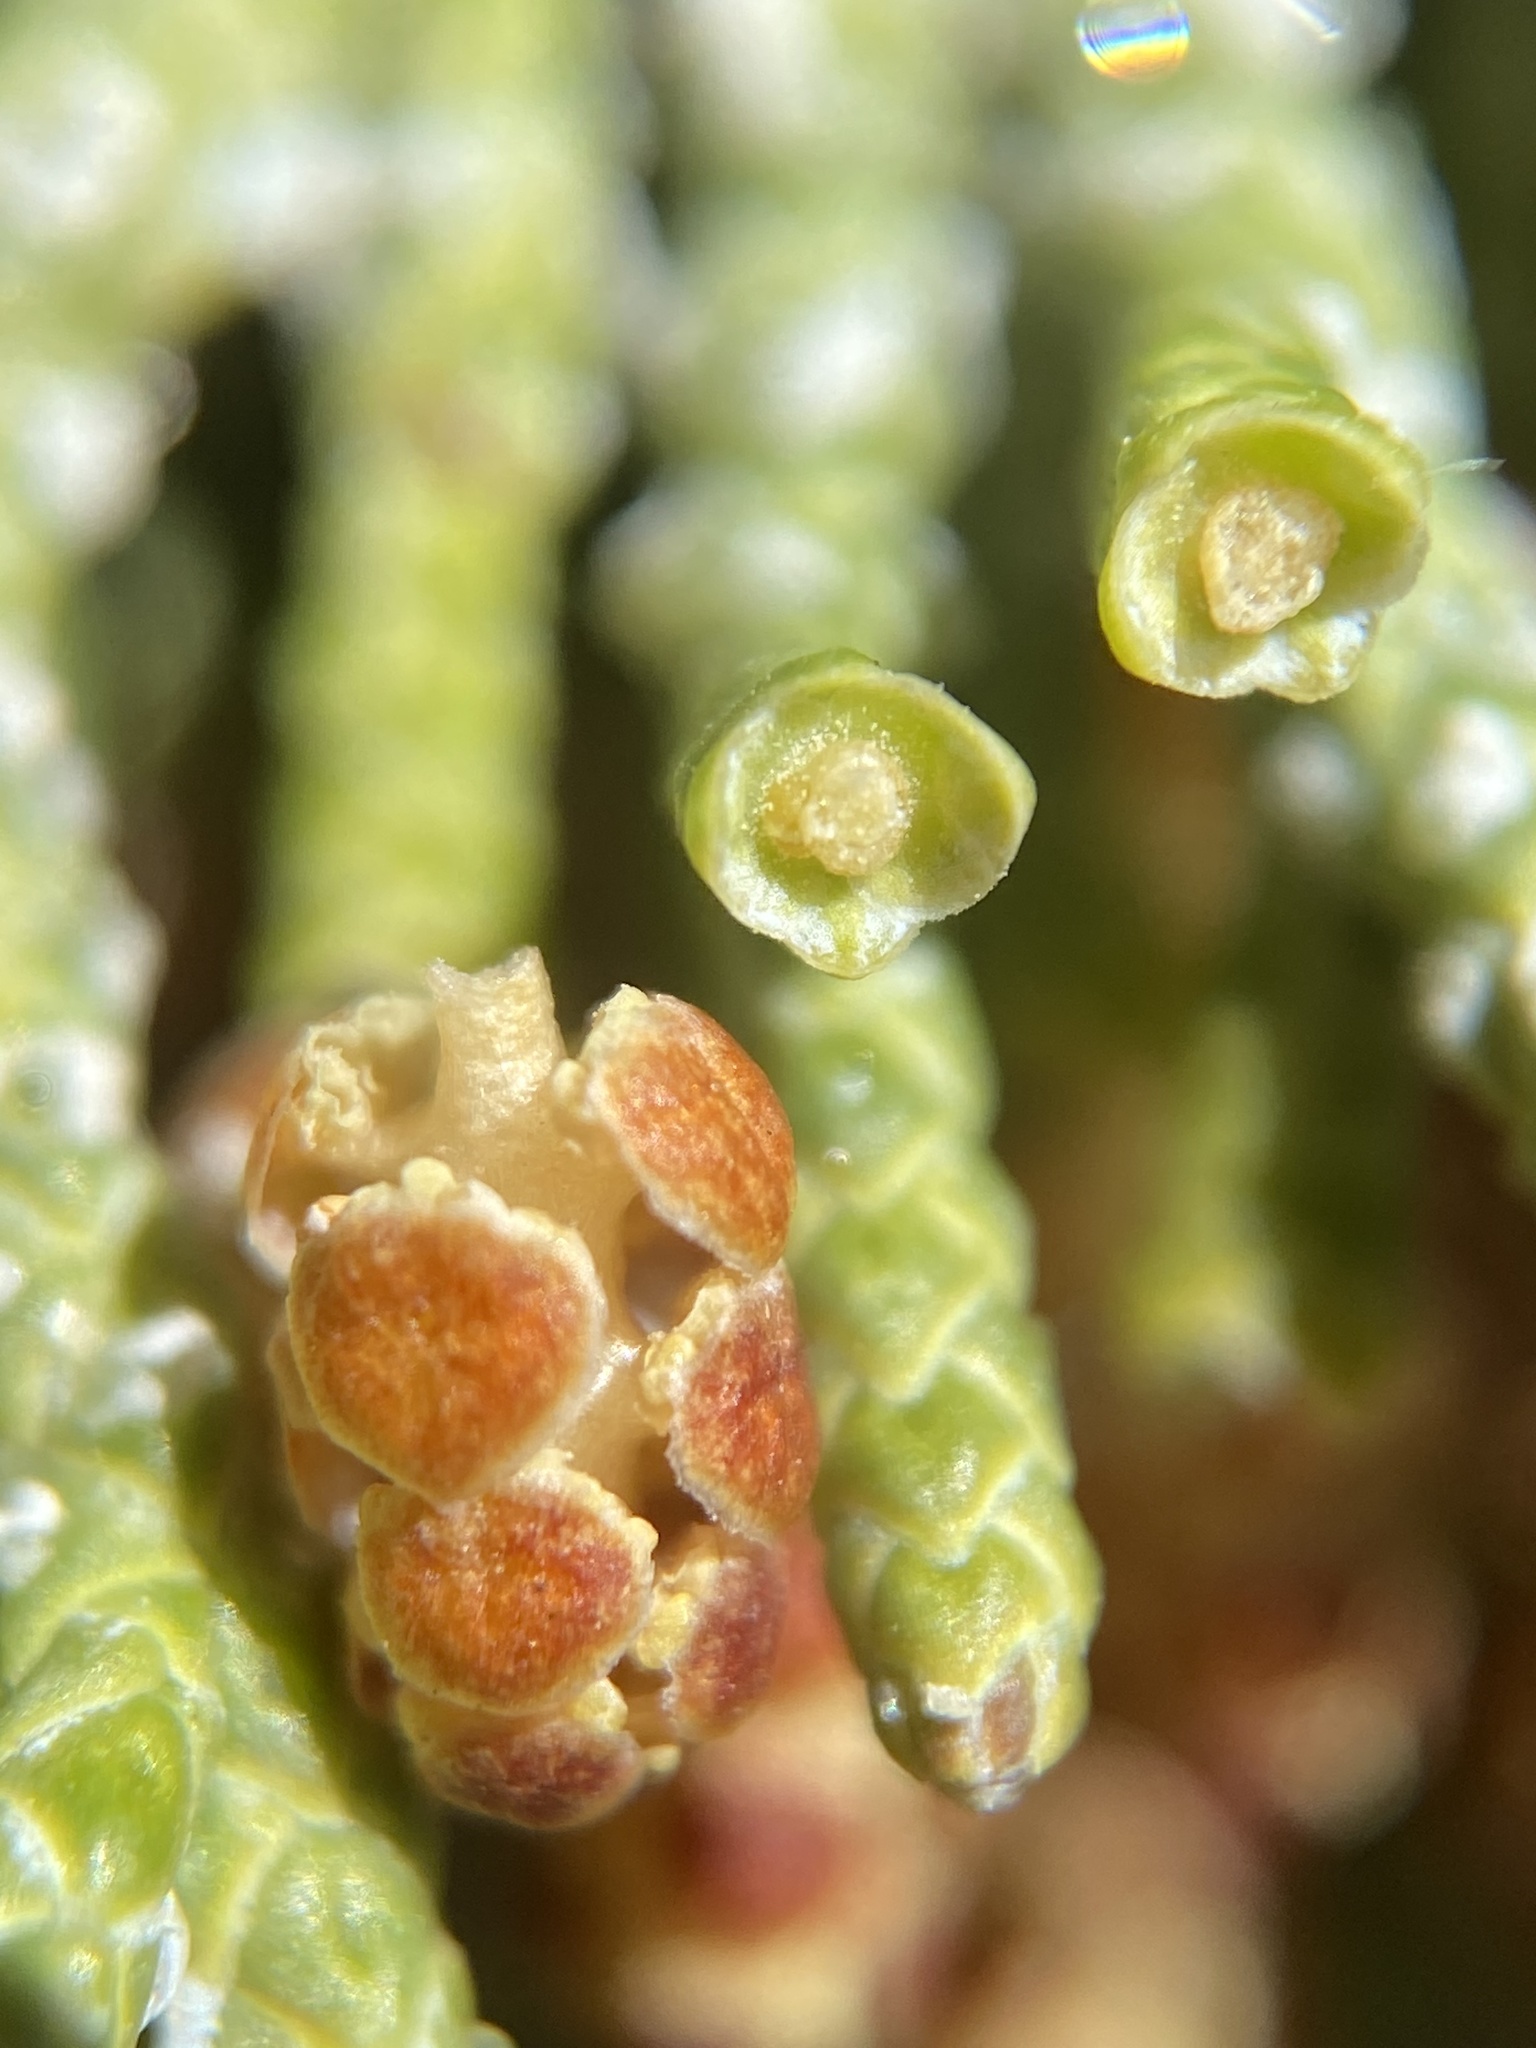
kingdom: Plantae
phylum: Tracheophyta
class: Pinopsida
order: Pinales
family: Cupressaceae
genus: Juniperus
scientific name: Juniperus occidentalis
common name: Western juniper
